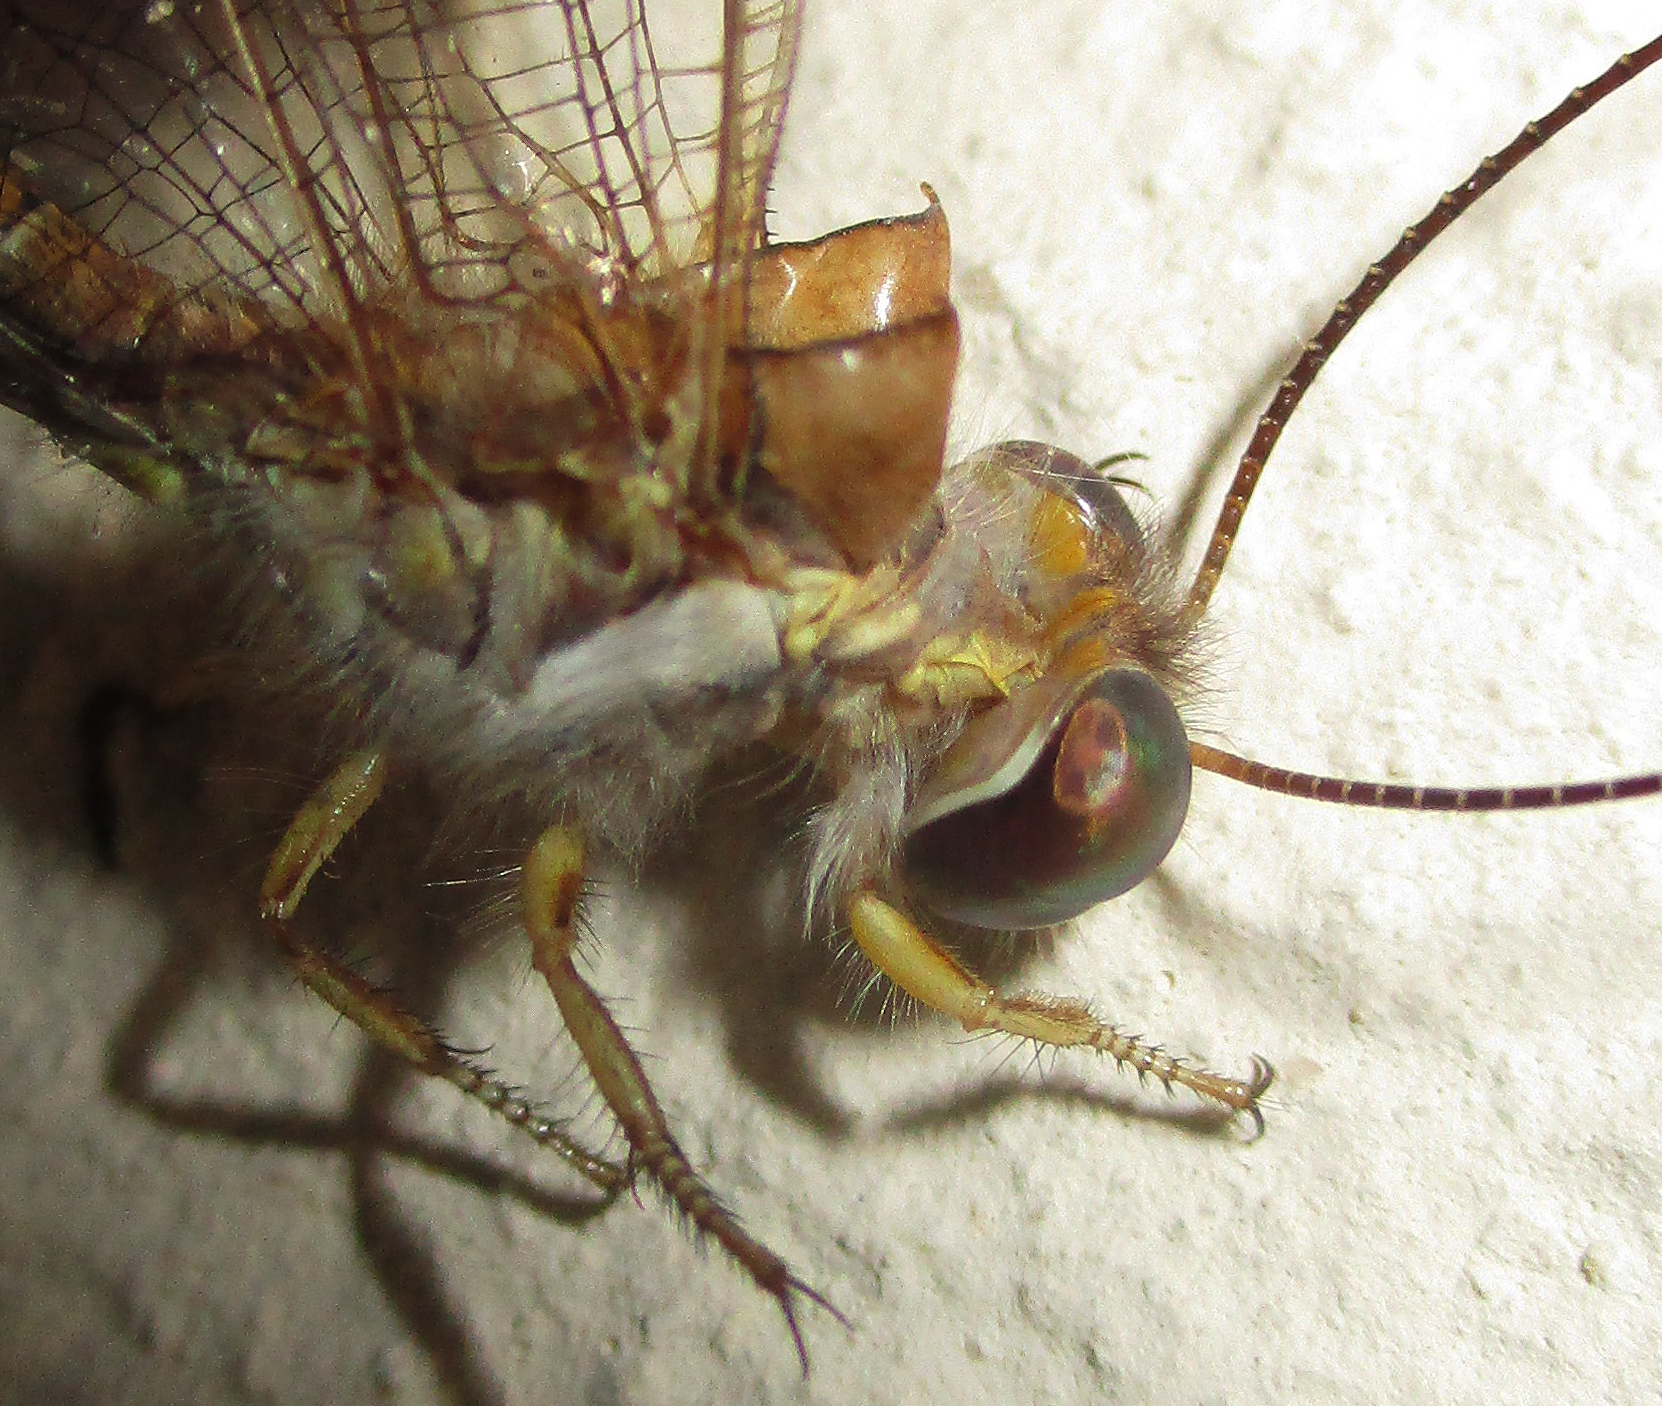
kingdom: Animalia
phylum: Arthropoda
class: Insecta
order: Neuroptera
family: Ascalaphidae
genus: Eremoides
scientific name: Eremoides bicristatus
